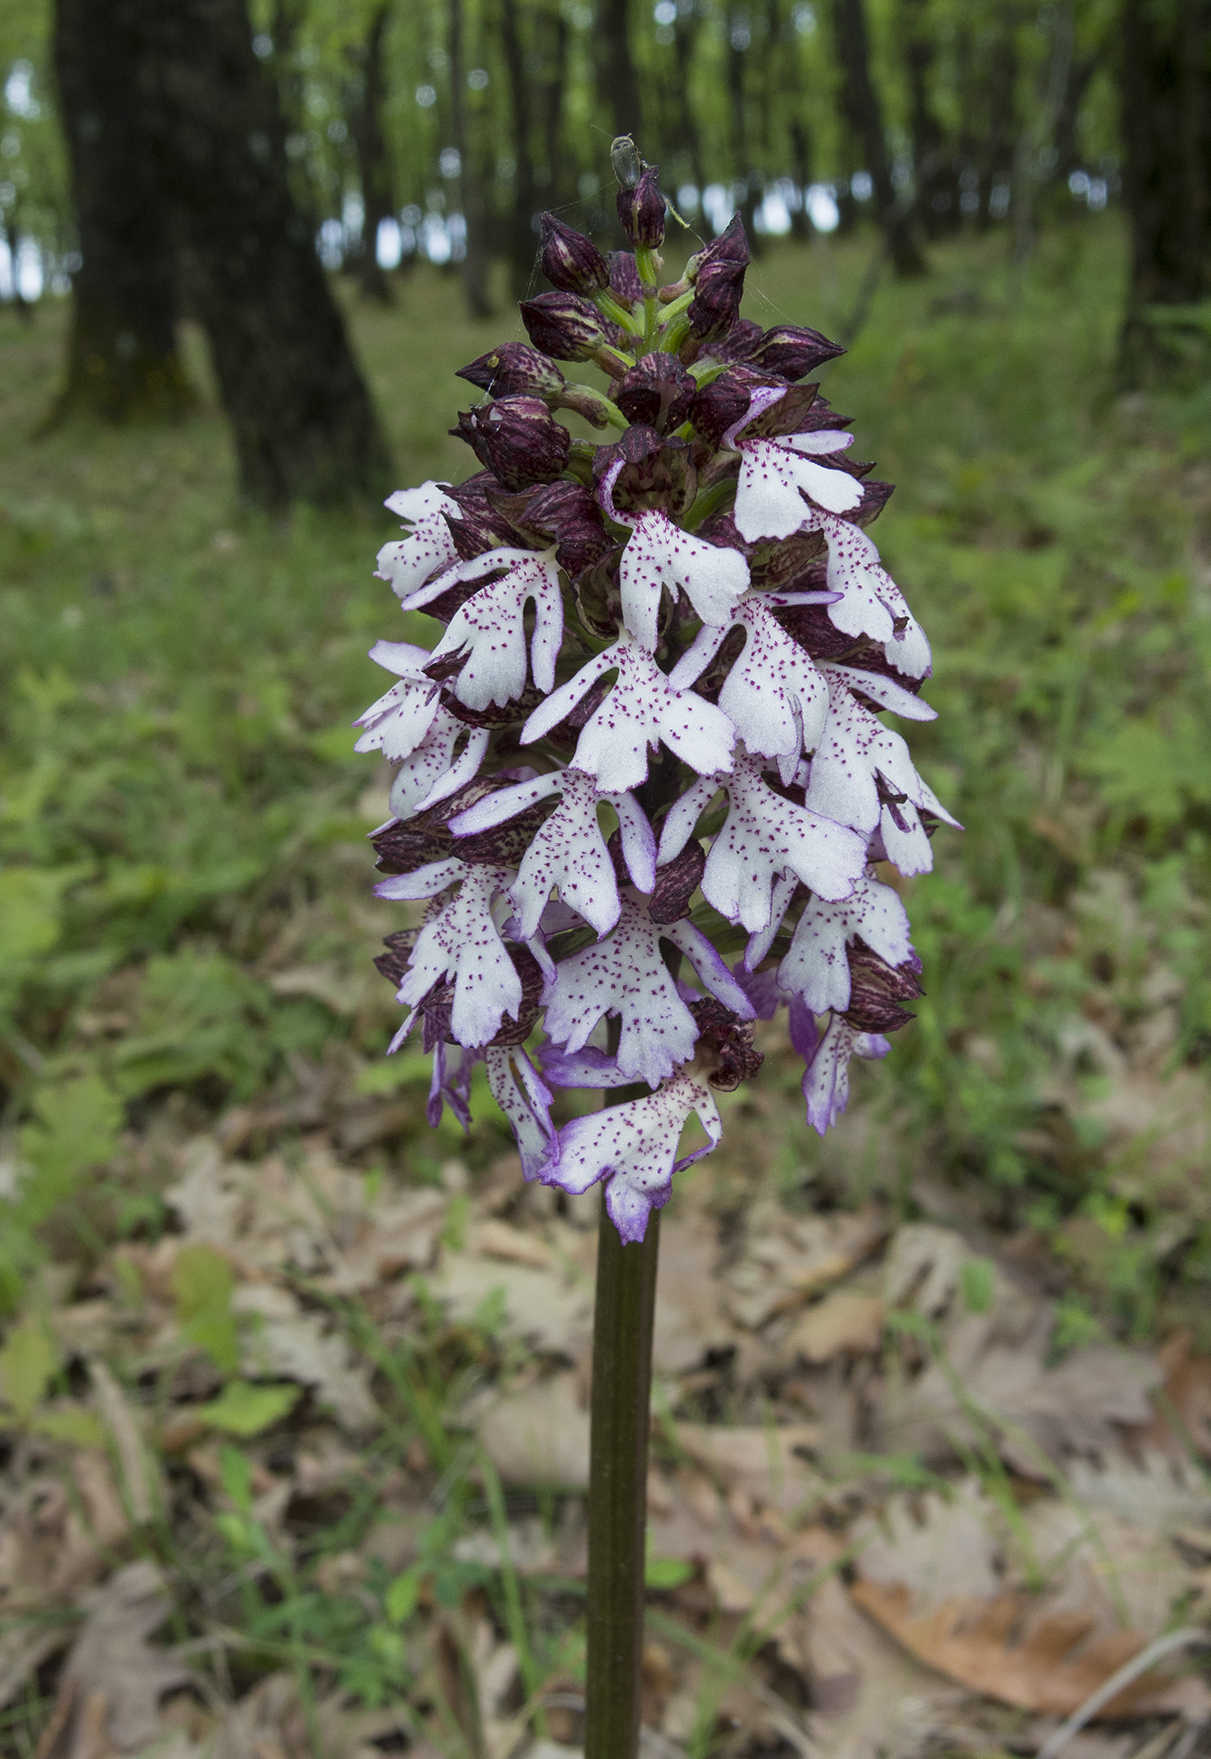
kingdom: Plantae
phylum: Tracheophyta
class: Liliopsida
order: Asparagales
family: Orchidaceae
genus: Orchis
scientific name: Orchis purpurea
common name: Lady orchid
